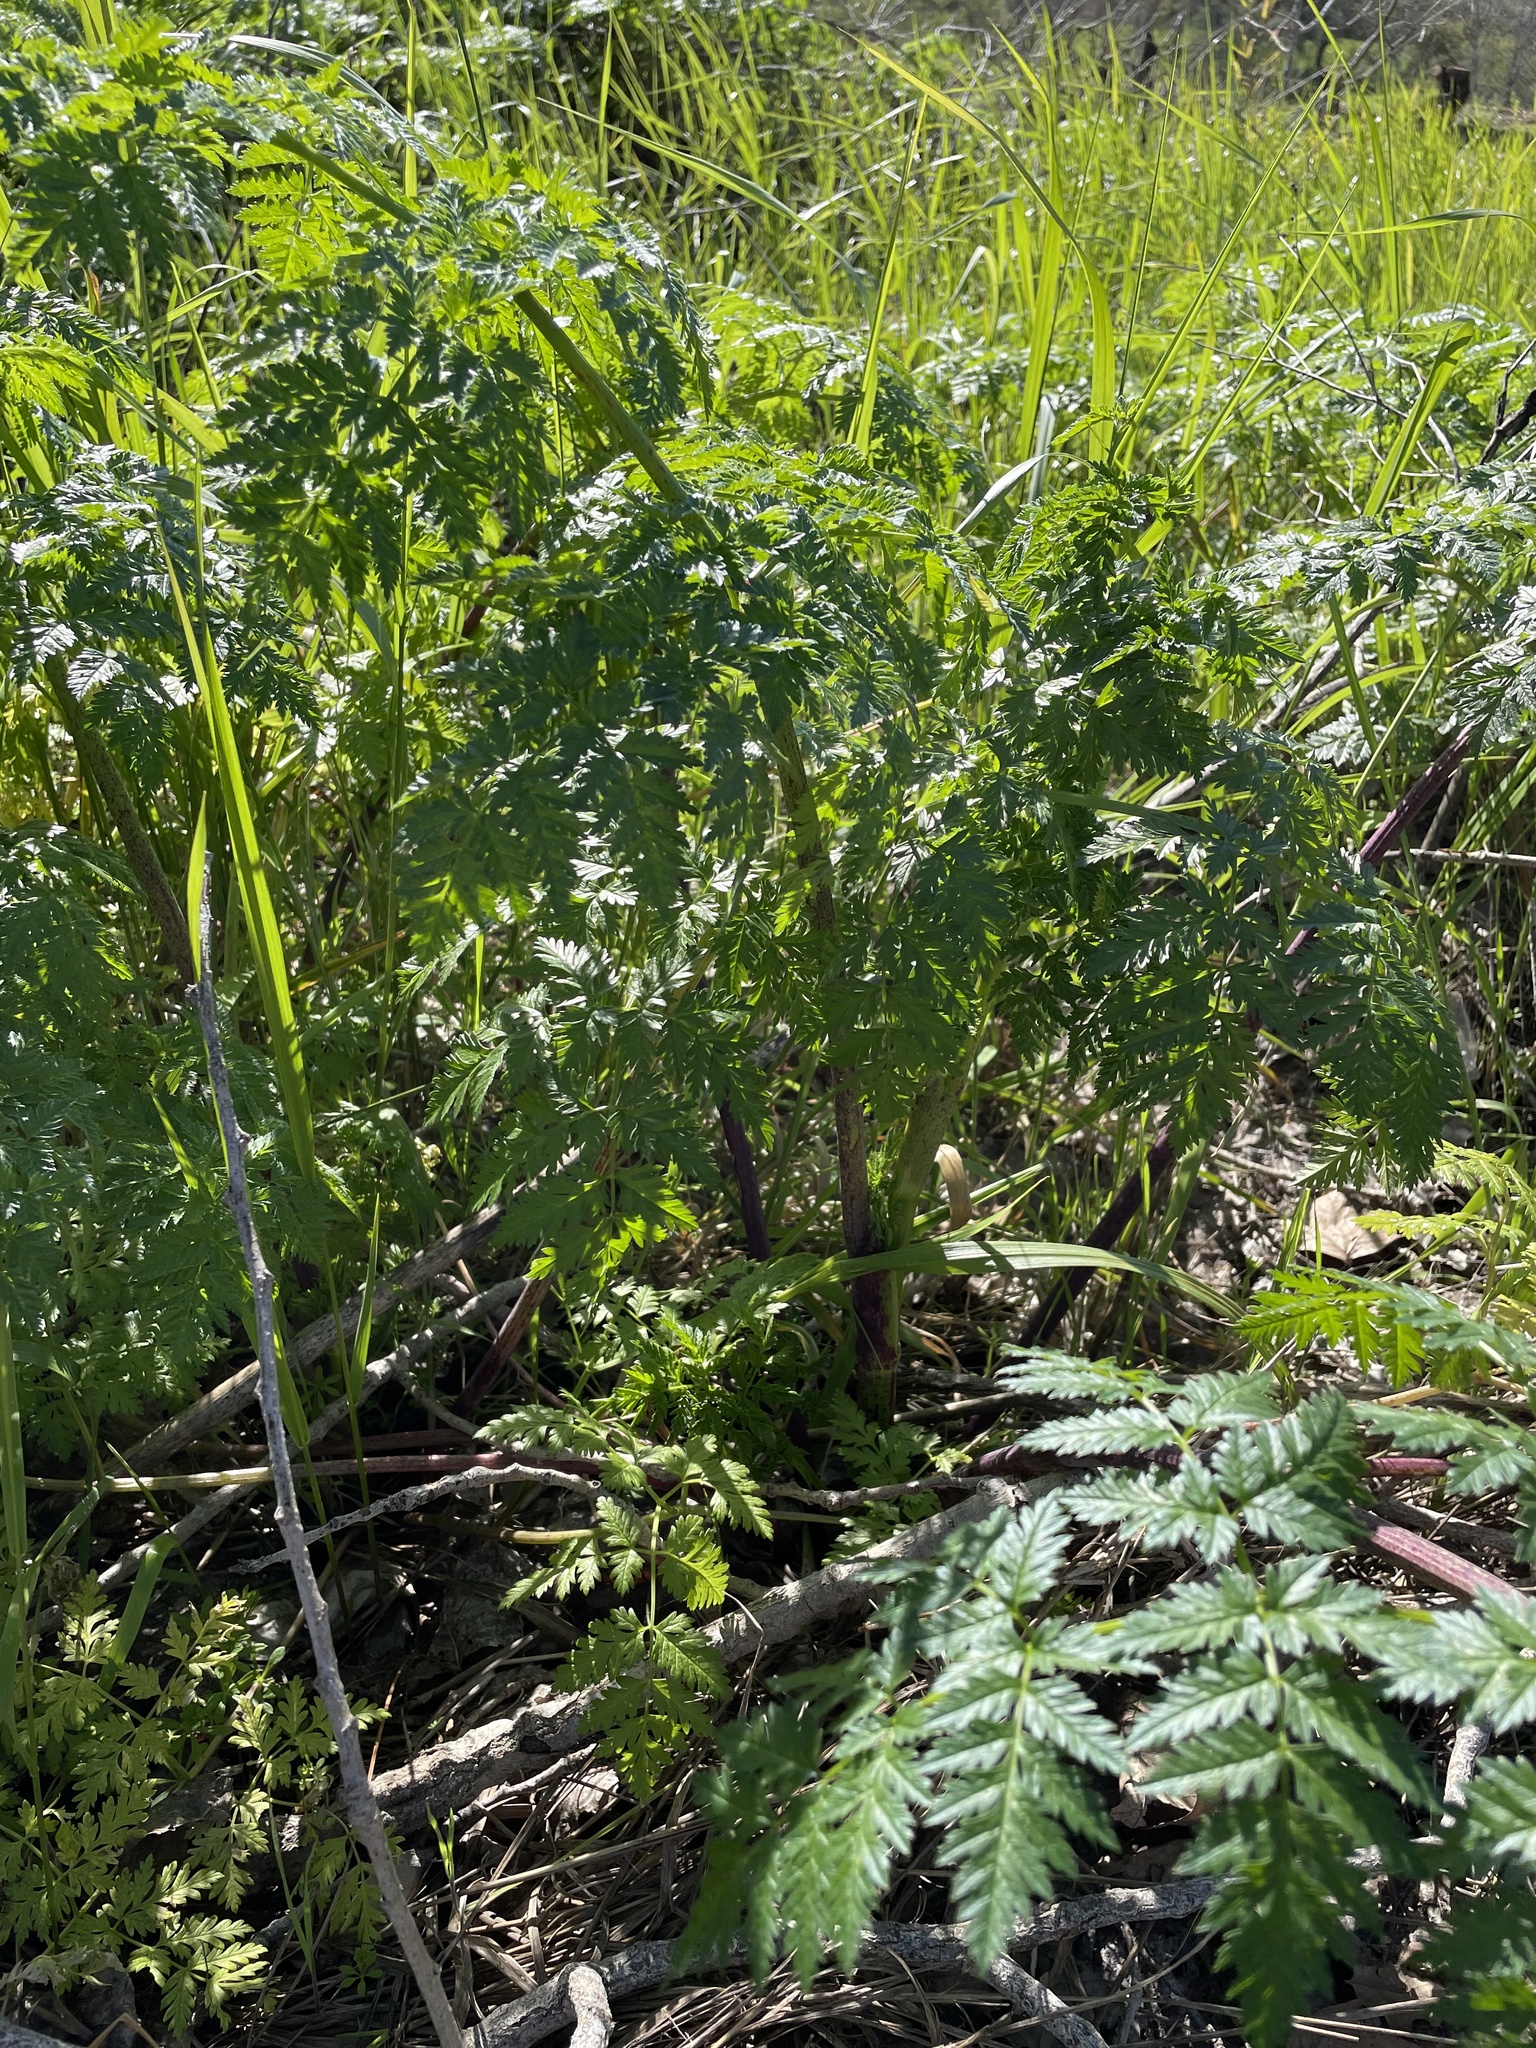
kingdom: Plantae
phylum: Tracheophyta
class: Magnoliopsida
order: Apiales
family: Apiaceae
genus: Conium
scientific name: Conium maculatum
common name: Hemlock
